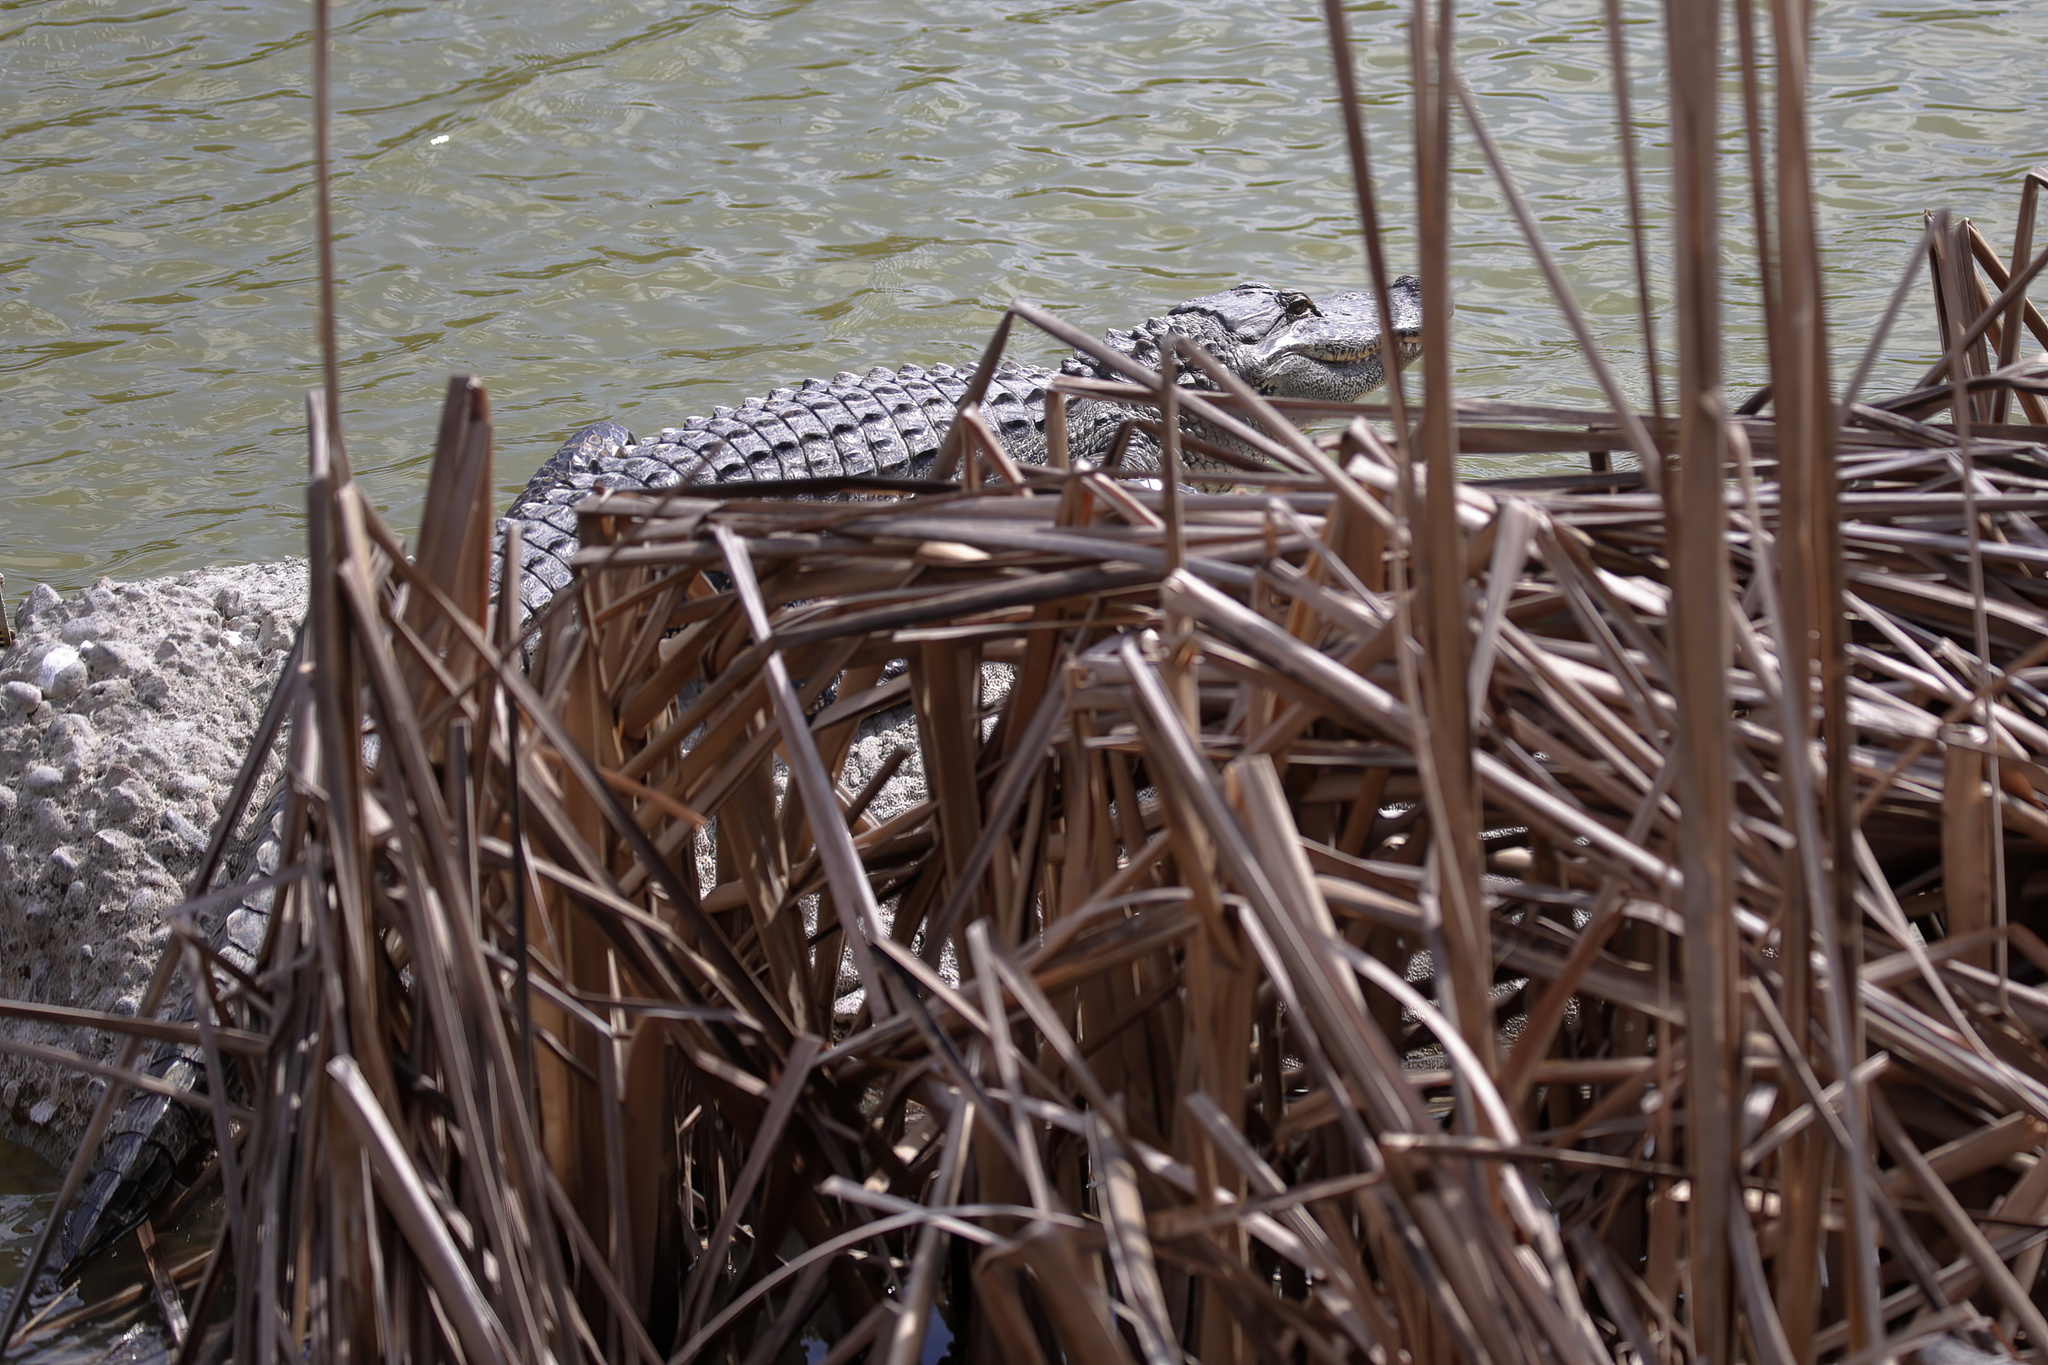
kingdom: Animalia
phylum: Chordata
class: Crocodylia
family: Alligatoridae
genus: Alligator
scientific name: Alligator mississippiensis
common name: American alligator
